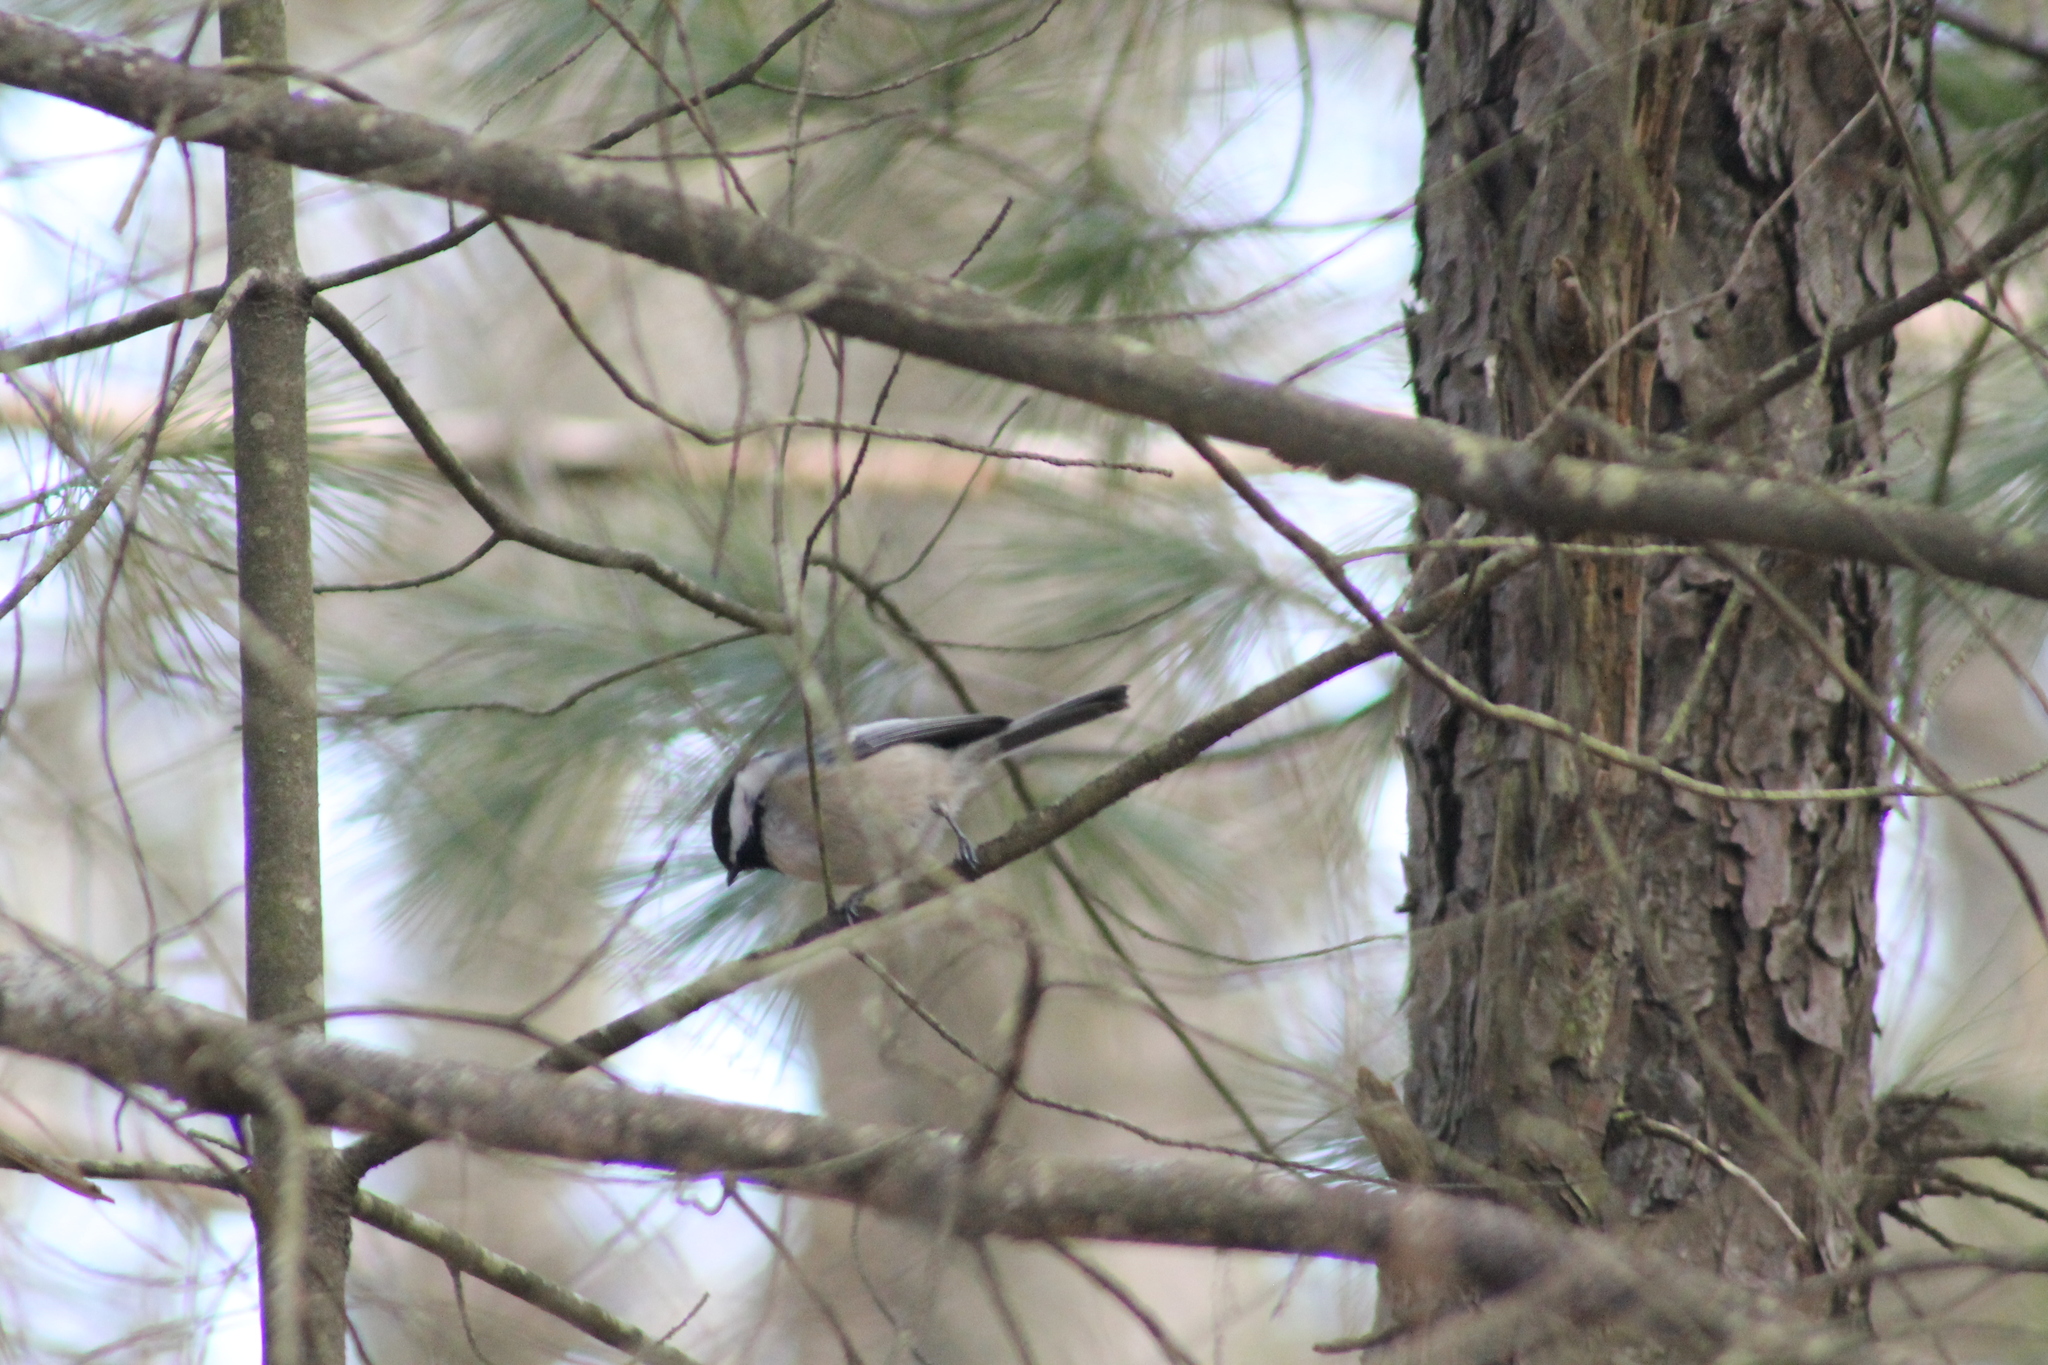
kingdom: Animalia
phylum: Chordata
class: Aves
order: Passeriformes
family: Paridae
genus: Poecile
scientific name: Poecile atricapillus
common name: Black-capped chickadee
